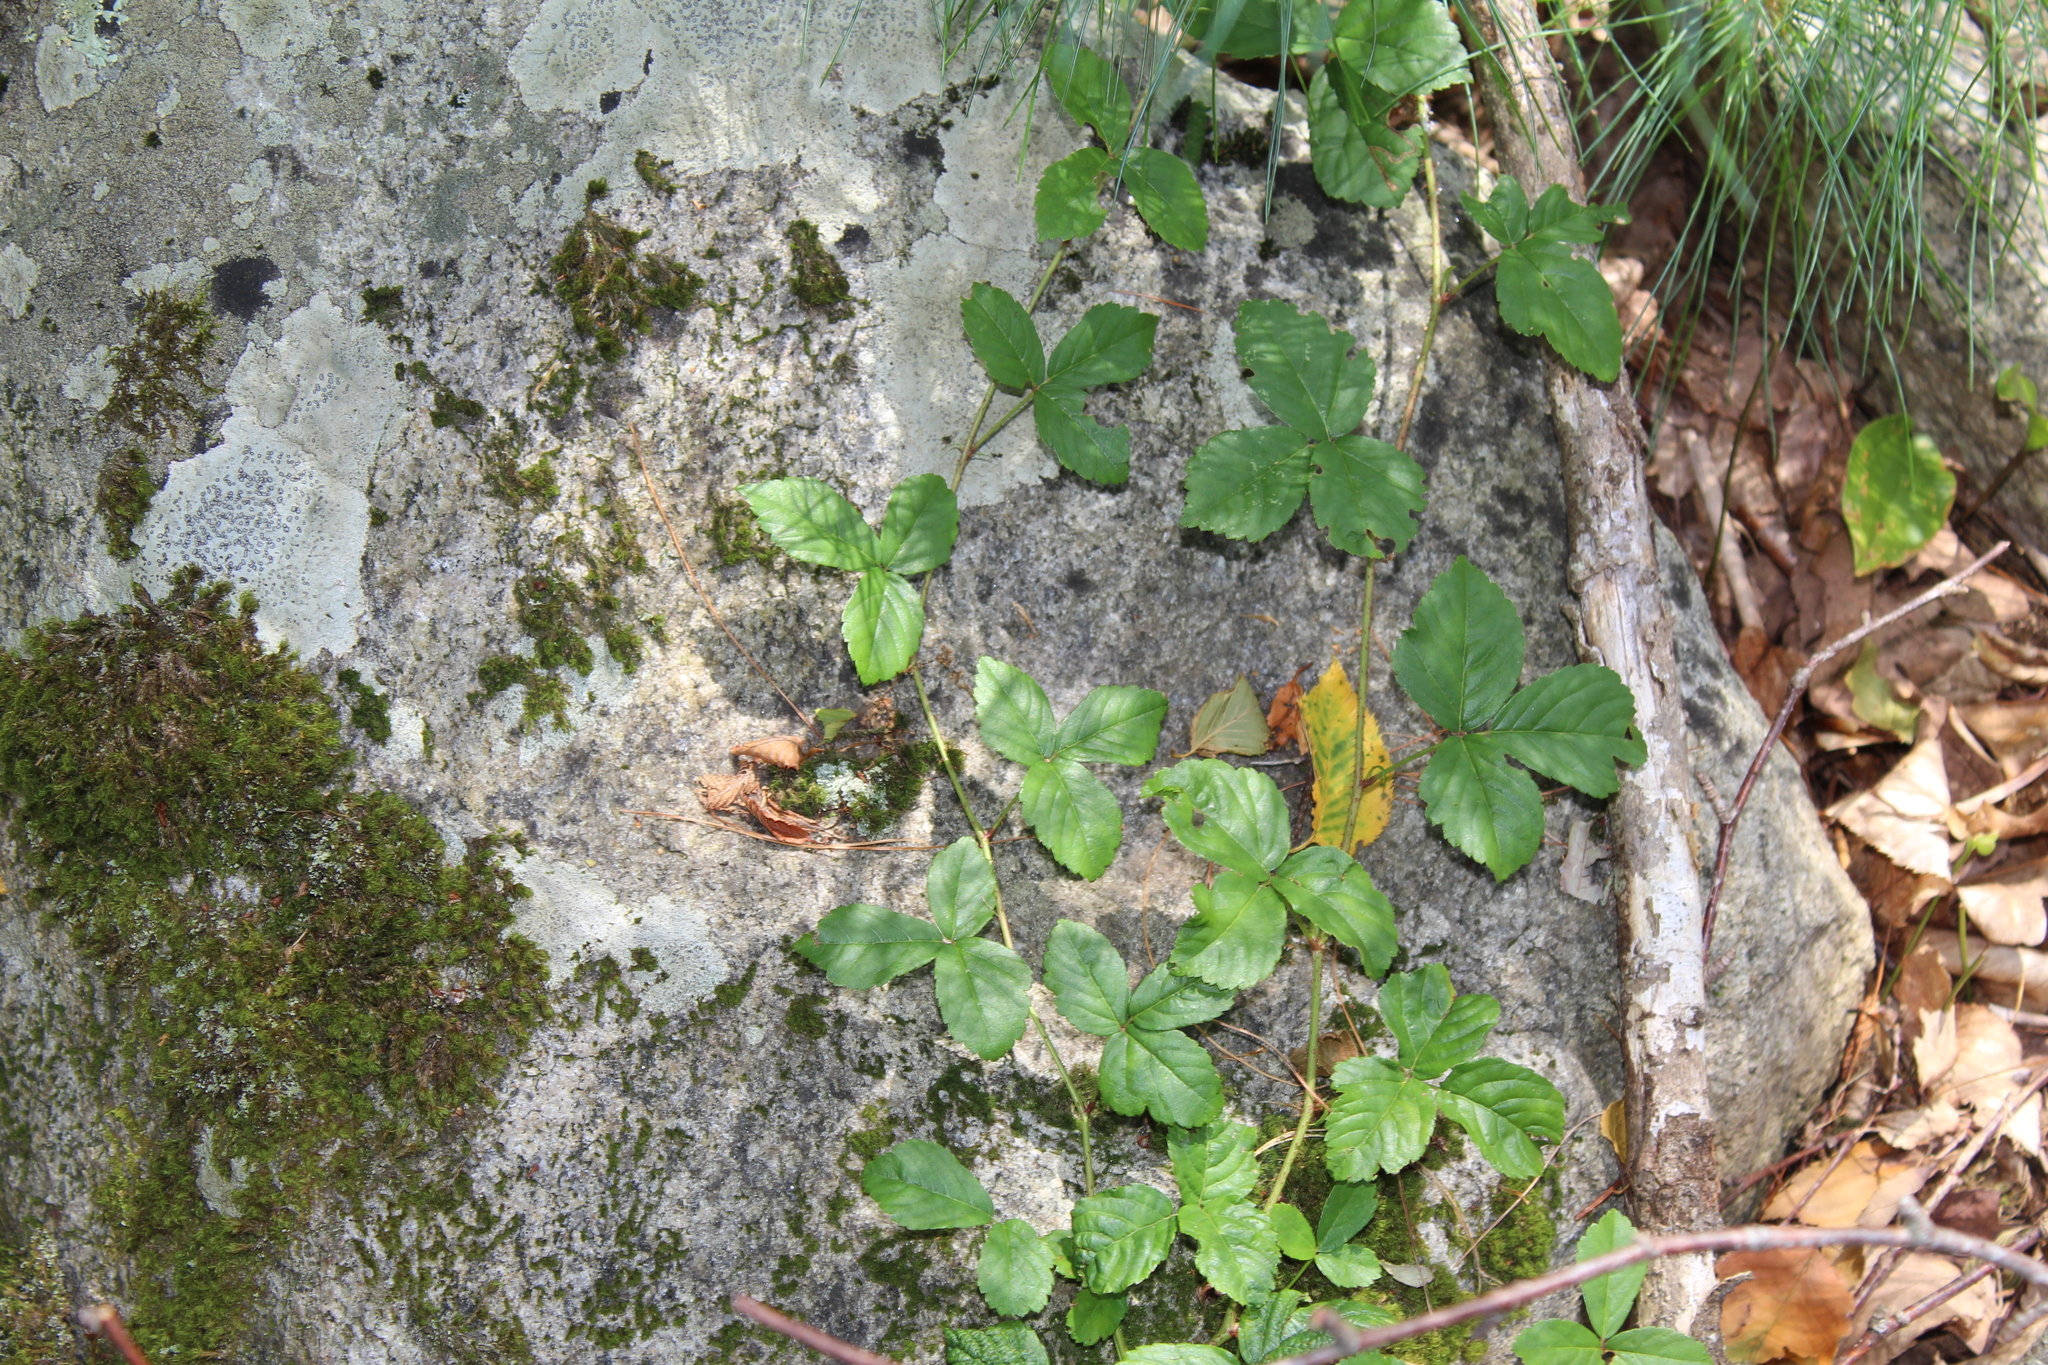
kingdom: Plantae
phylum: Tracheophyta
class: Magnoliopsida
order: Rosales
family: Rosaceae
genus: Rubus
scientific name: Rubus hispidus
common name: Running blackberry
